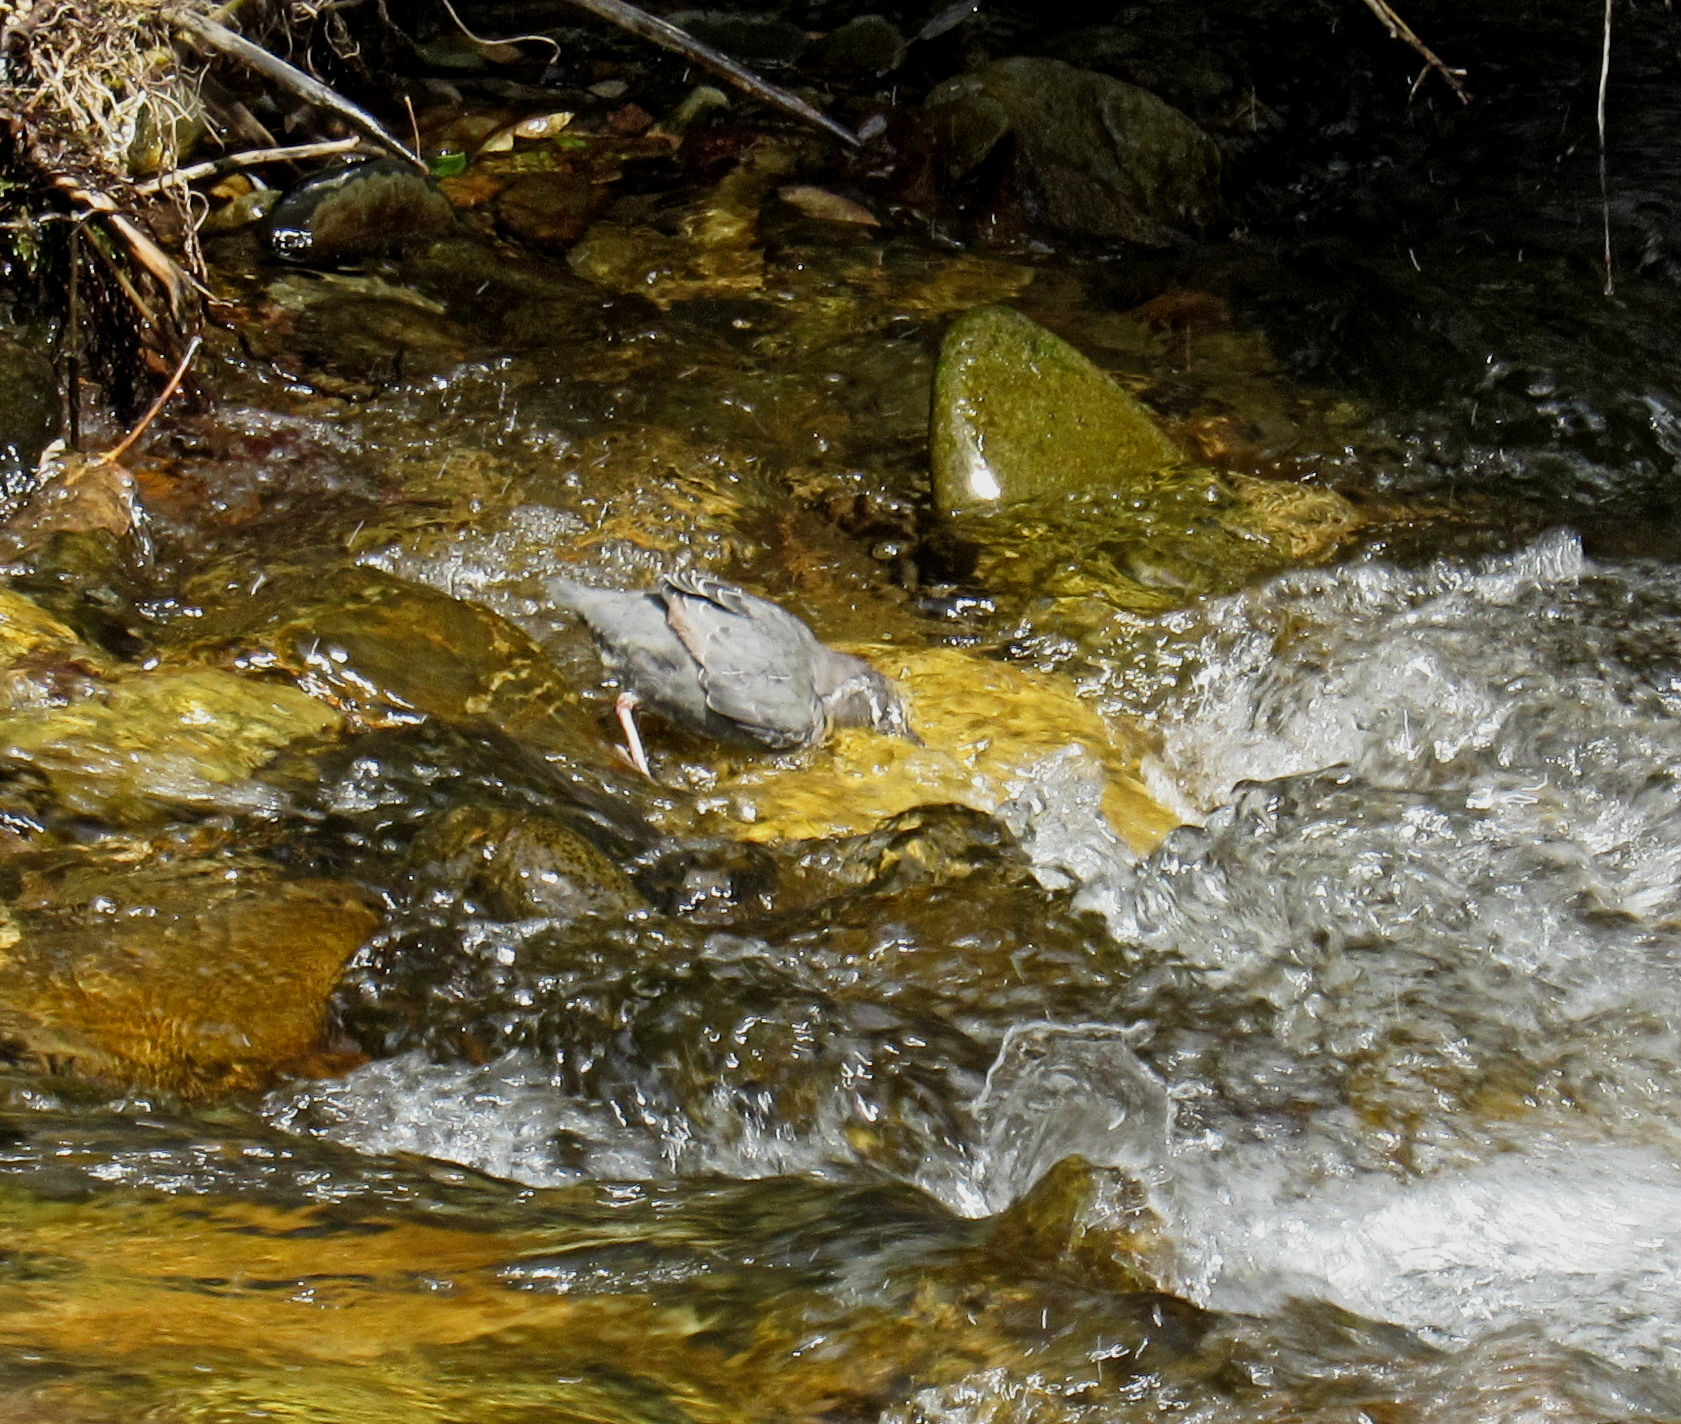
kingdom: Animalia
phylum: Chordata
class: Aves
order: Passeriformes
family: Cinclidae
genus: Cinclus
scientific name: Cinclus mexicanus
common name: American dipper
